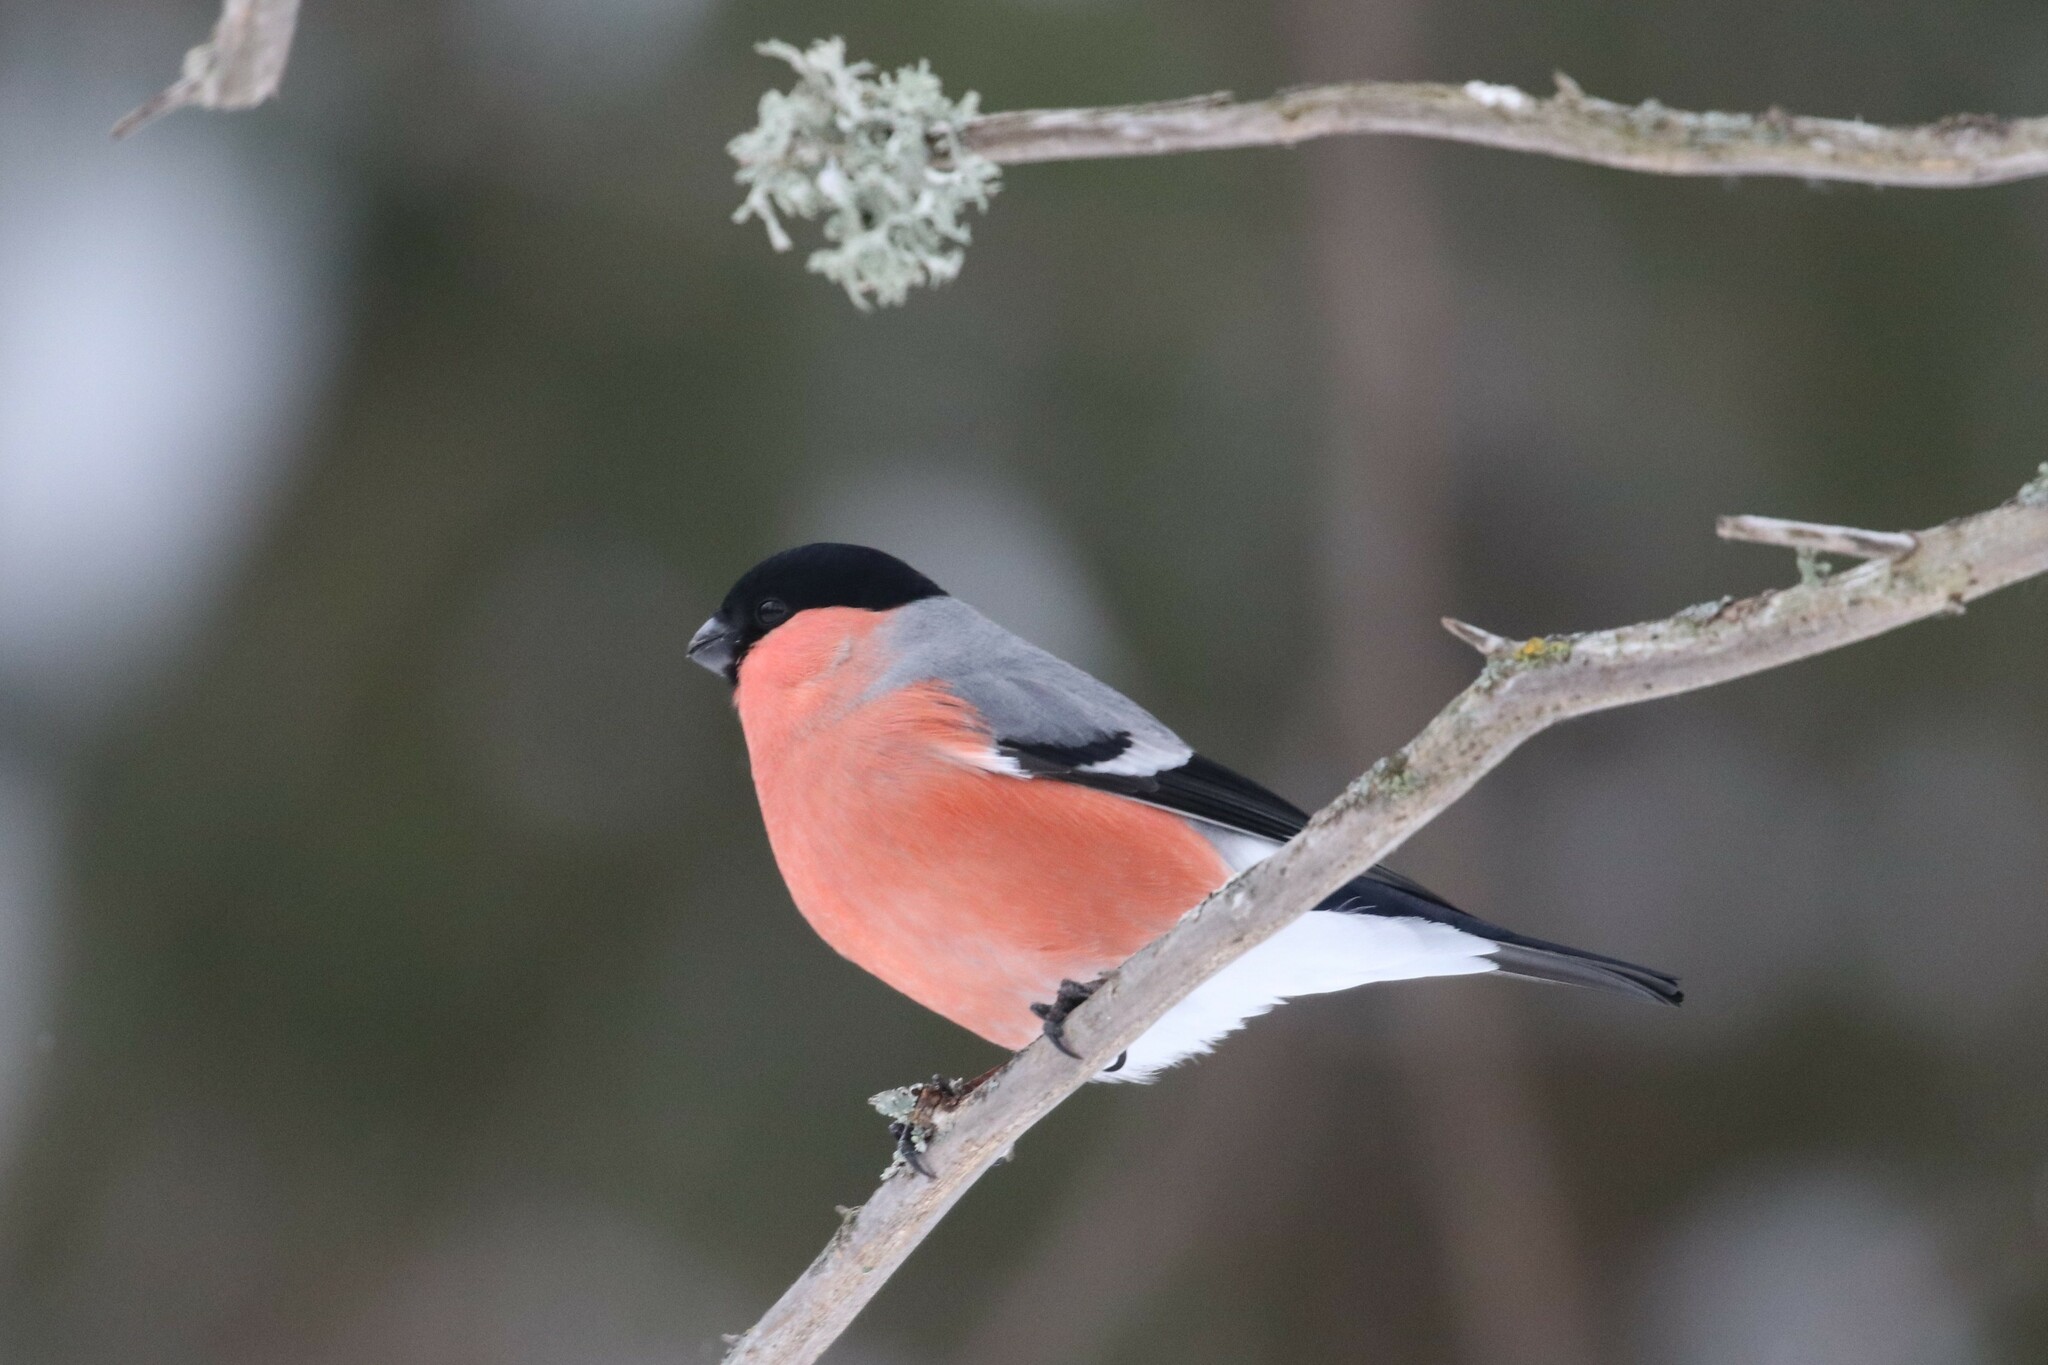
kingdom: Animalia
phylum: Chordata
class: Aves
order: Passeriformes
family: Fringillidae
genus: Pyrrhula
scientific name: Pyrrhula pyrrhula
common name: Eurasian bullfinch
